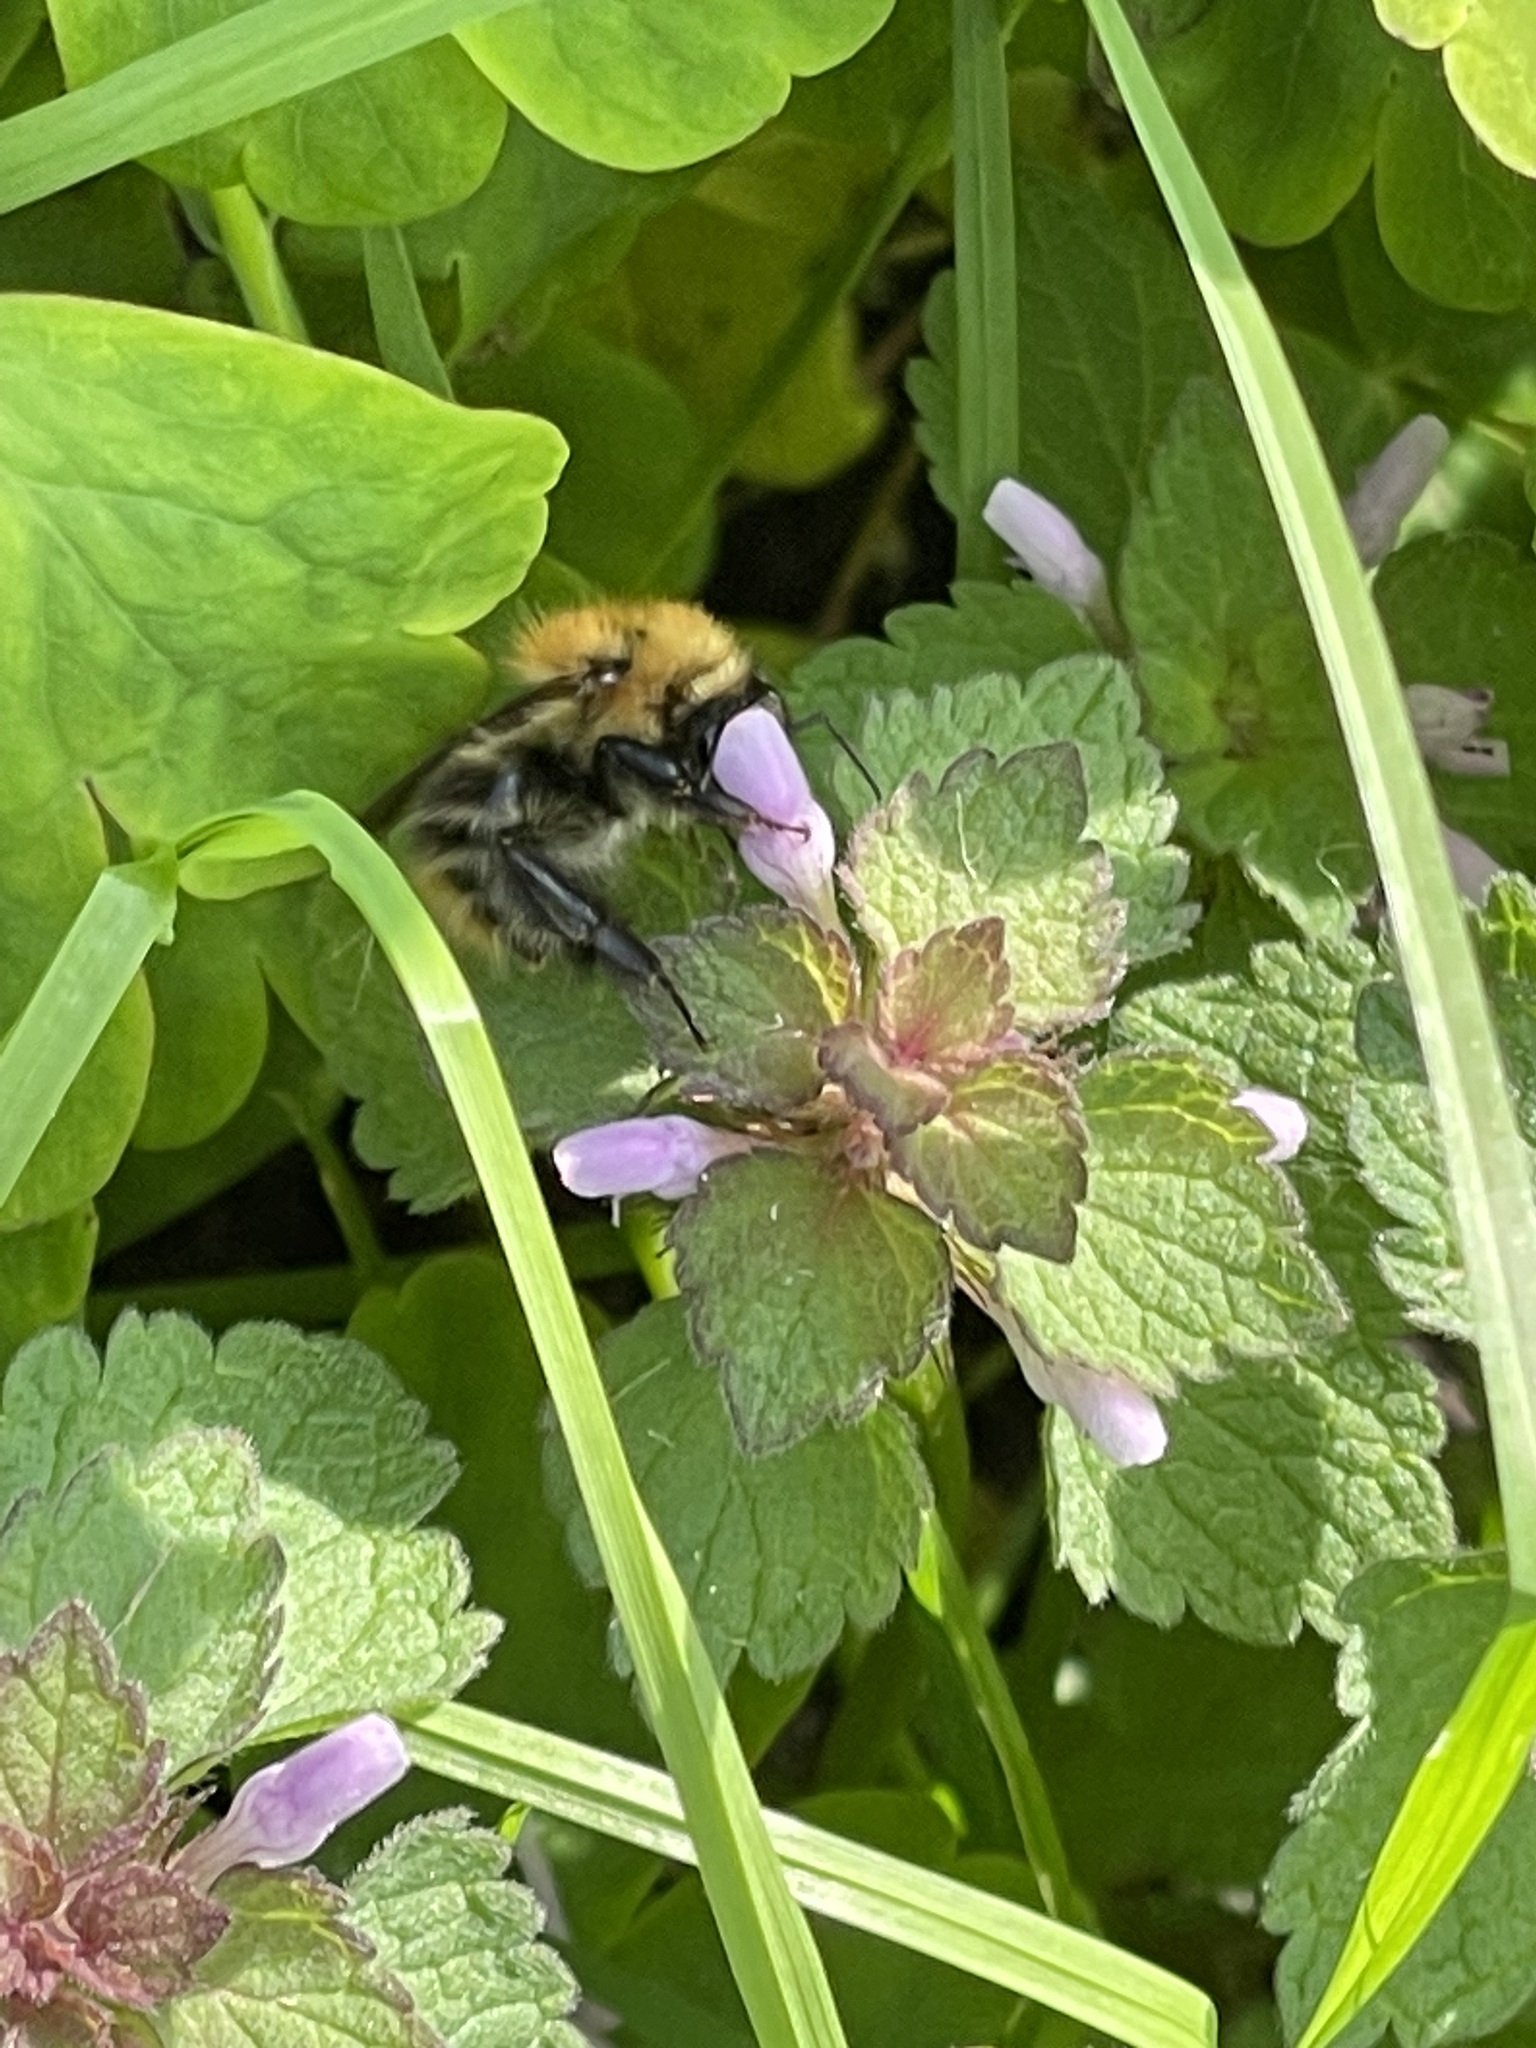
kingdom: Animalia
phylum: Arthropoda
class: Insecta
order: Hymenoptera
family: Apidae
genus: Bombus
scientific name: Bombus pascuorum
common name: Common carder bee
